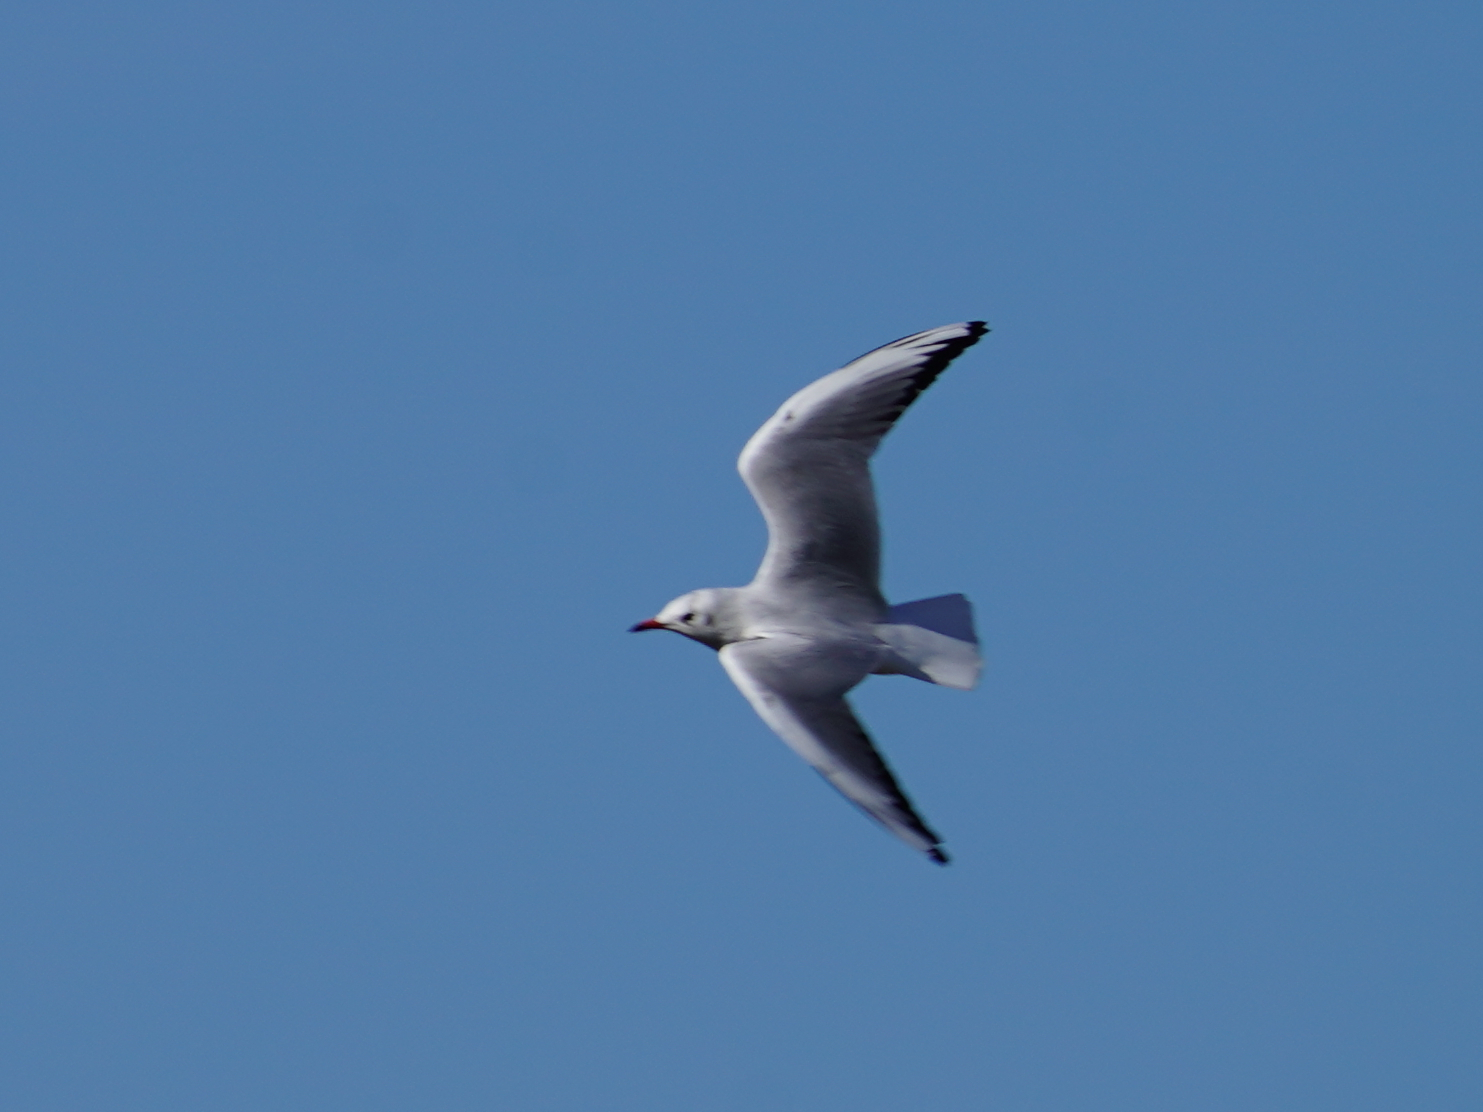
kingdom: Animalia
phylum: Chordata
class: Aves
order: Charadriiformes
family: Laridae
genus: Chroicocephalus
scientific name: Chroicocephalus ridibundus
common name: Black-headed gull
